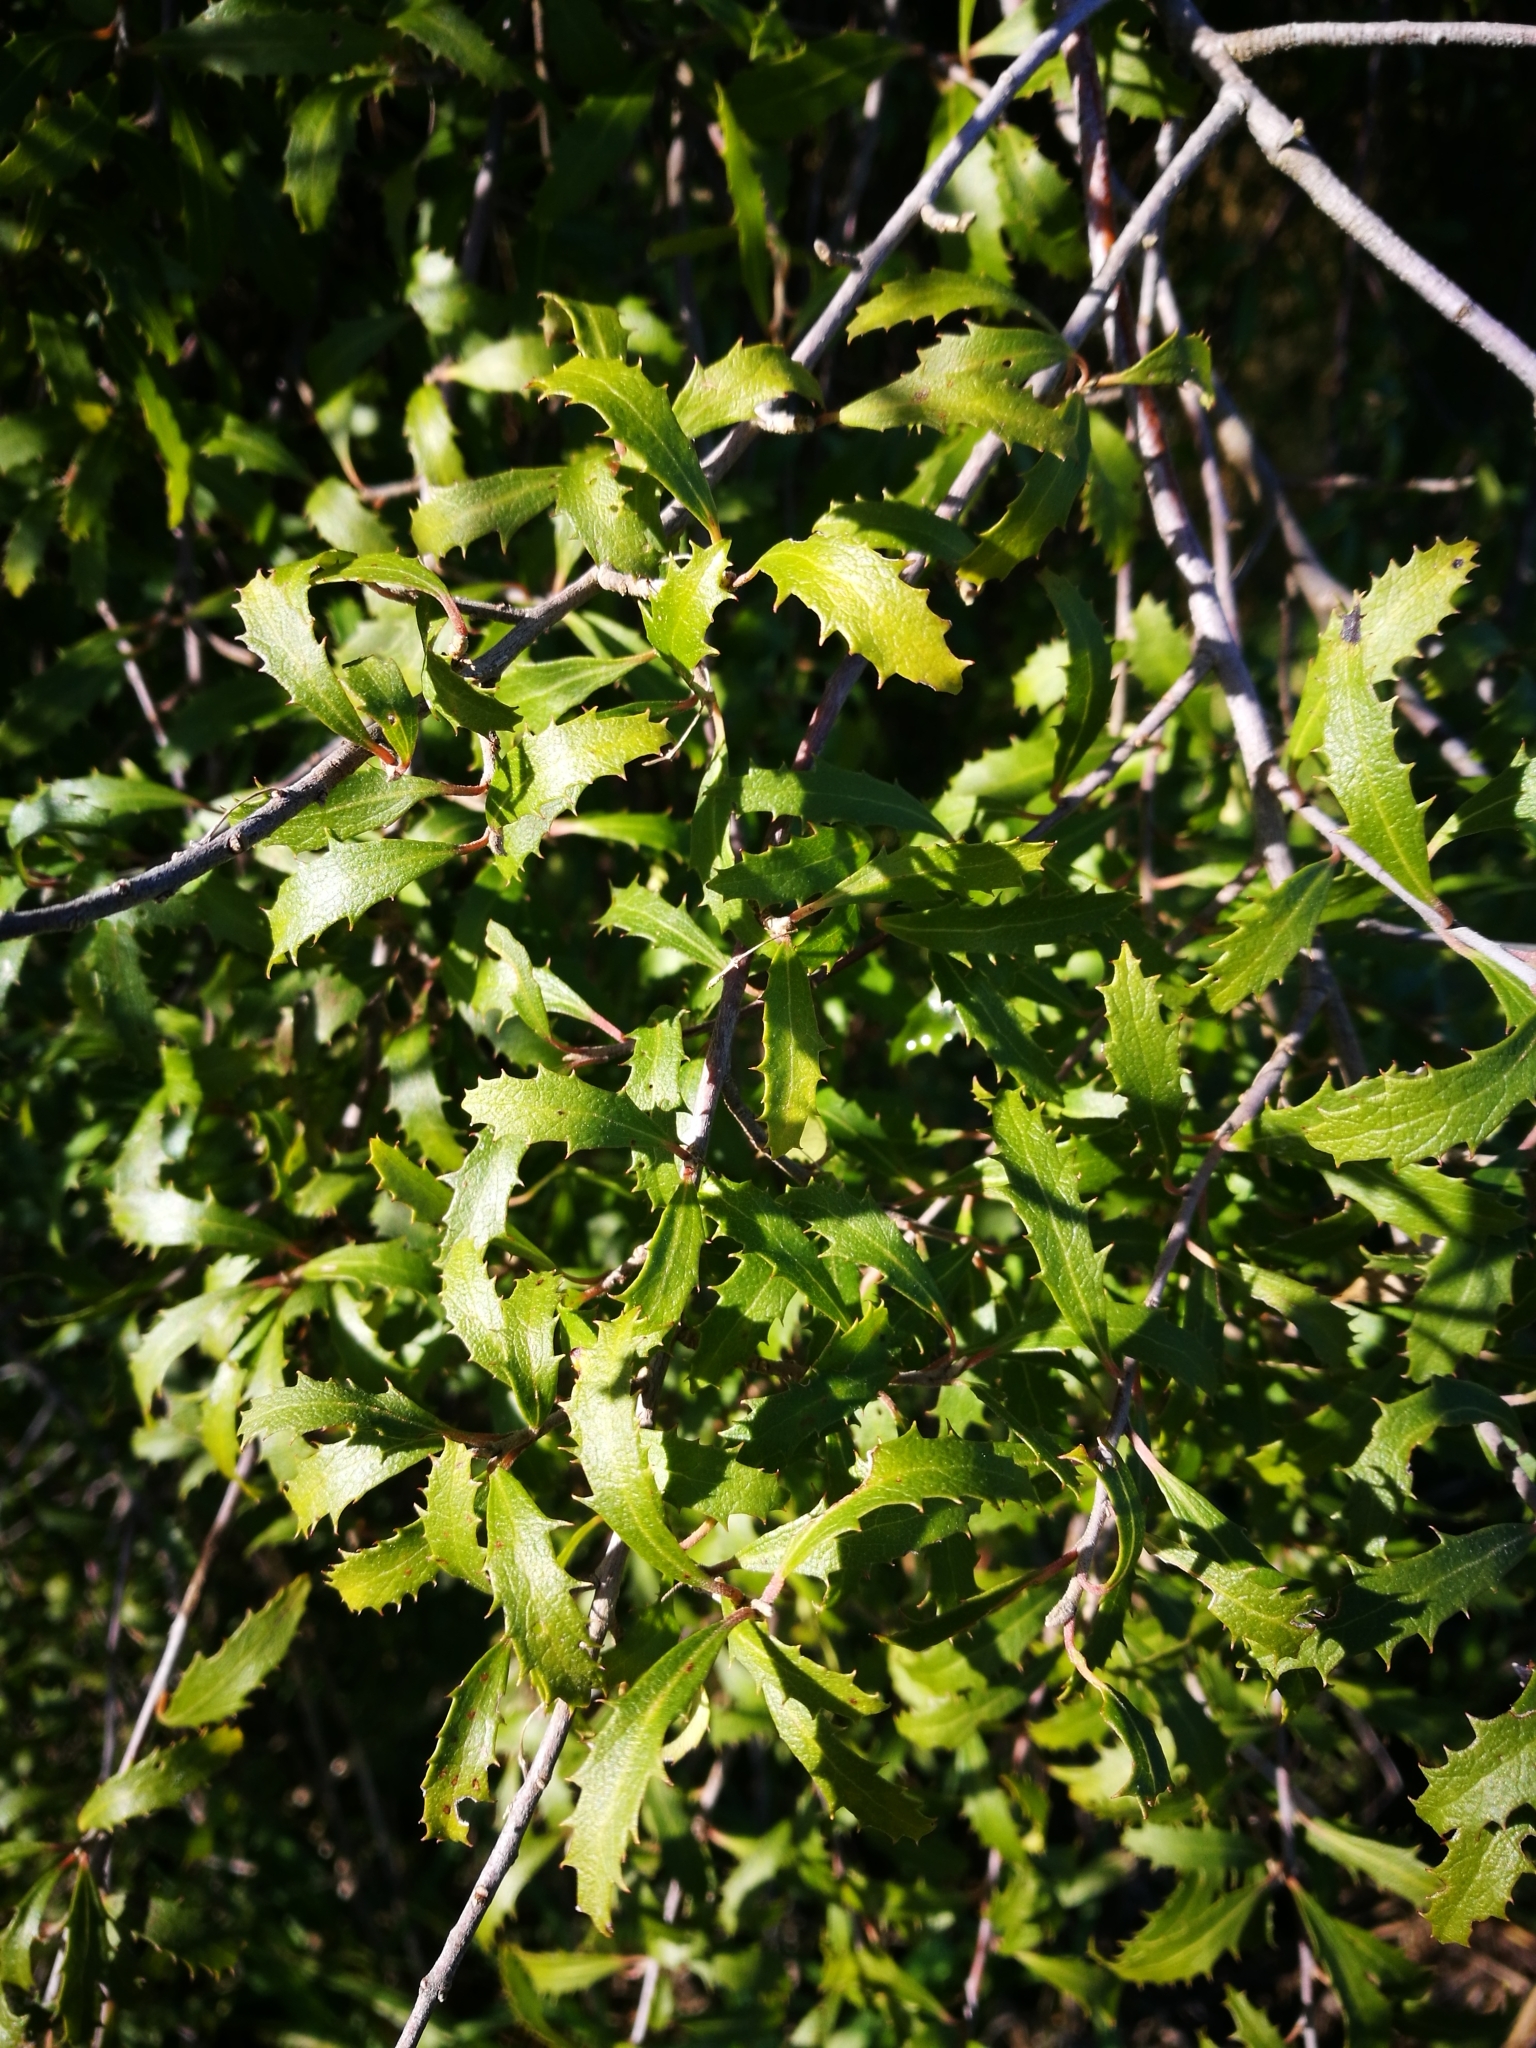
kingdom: Plantae
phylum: Tracheophyta
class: Magnoliopsida
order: Malvales
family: Malvaceae
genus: Hoheria
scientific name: Hoheria angustifolia
